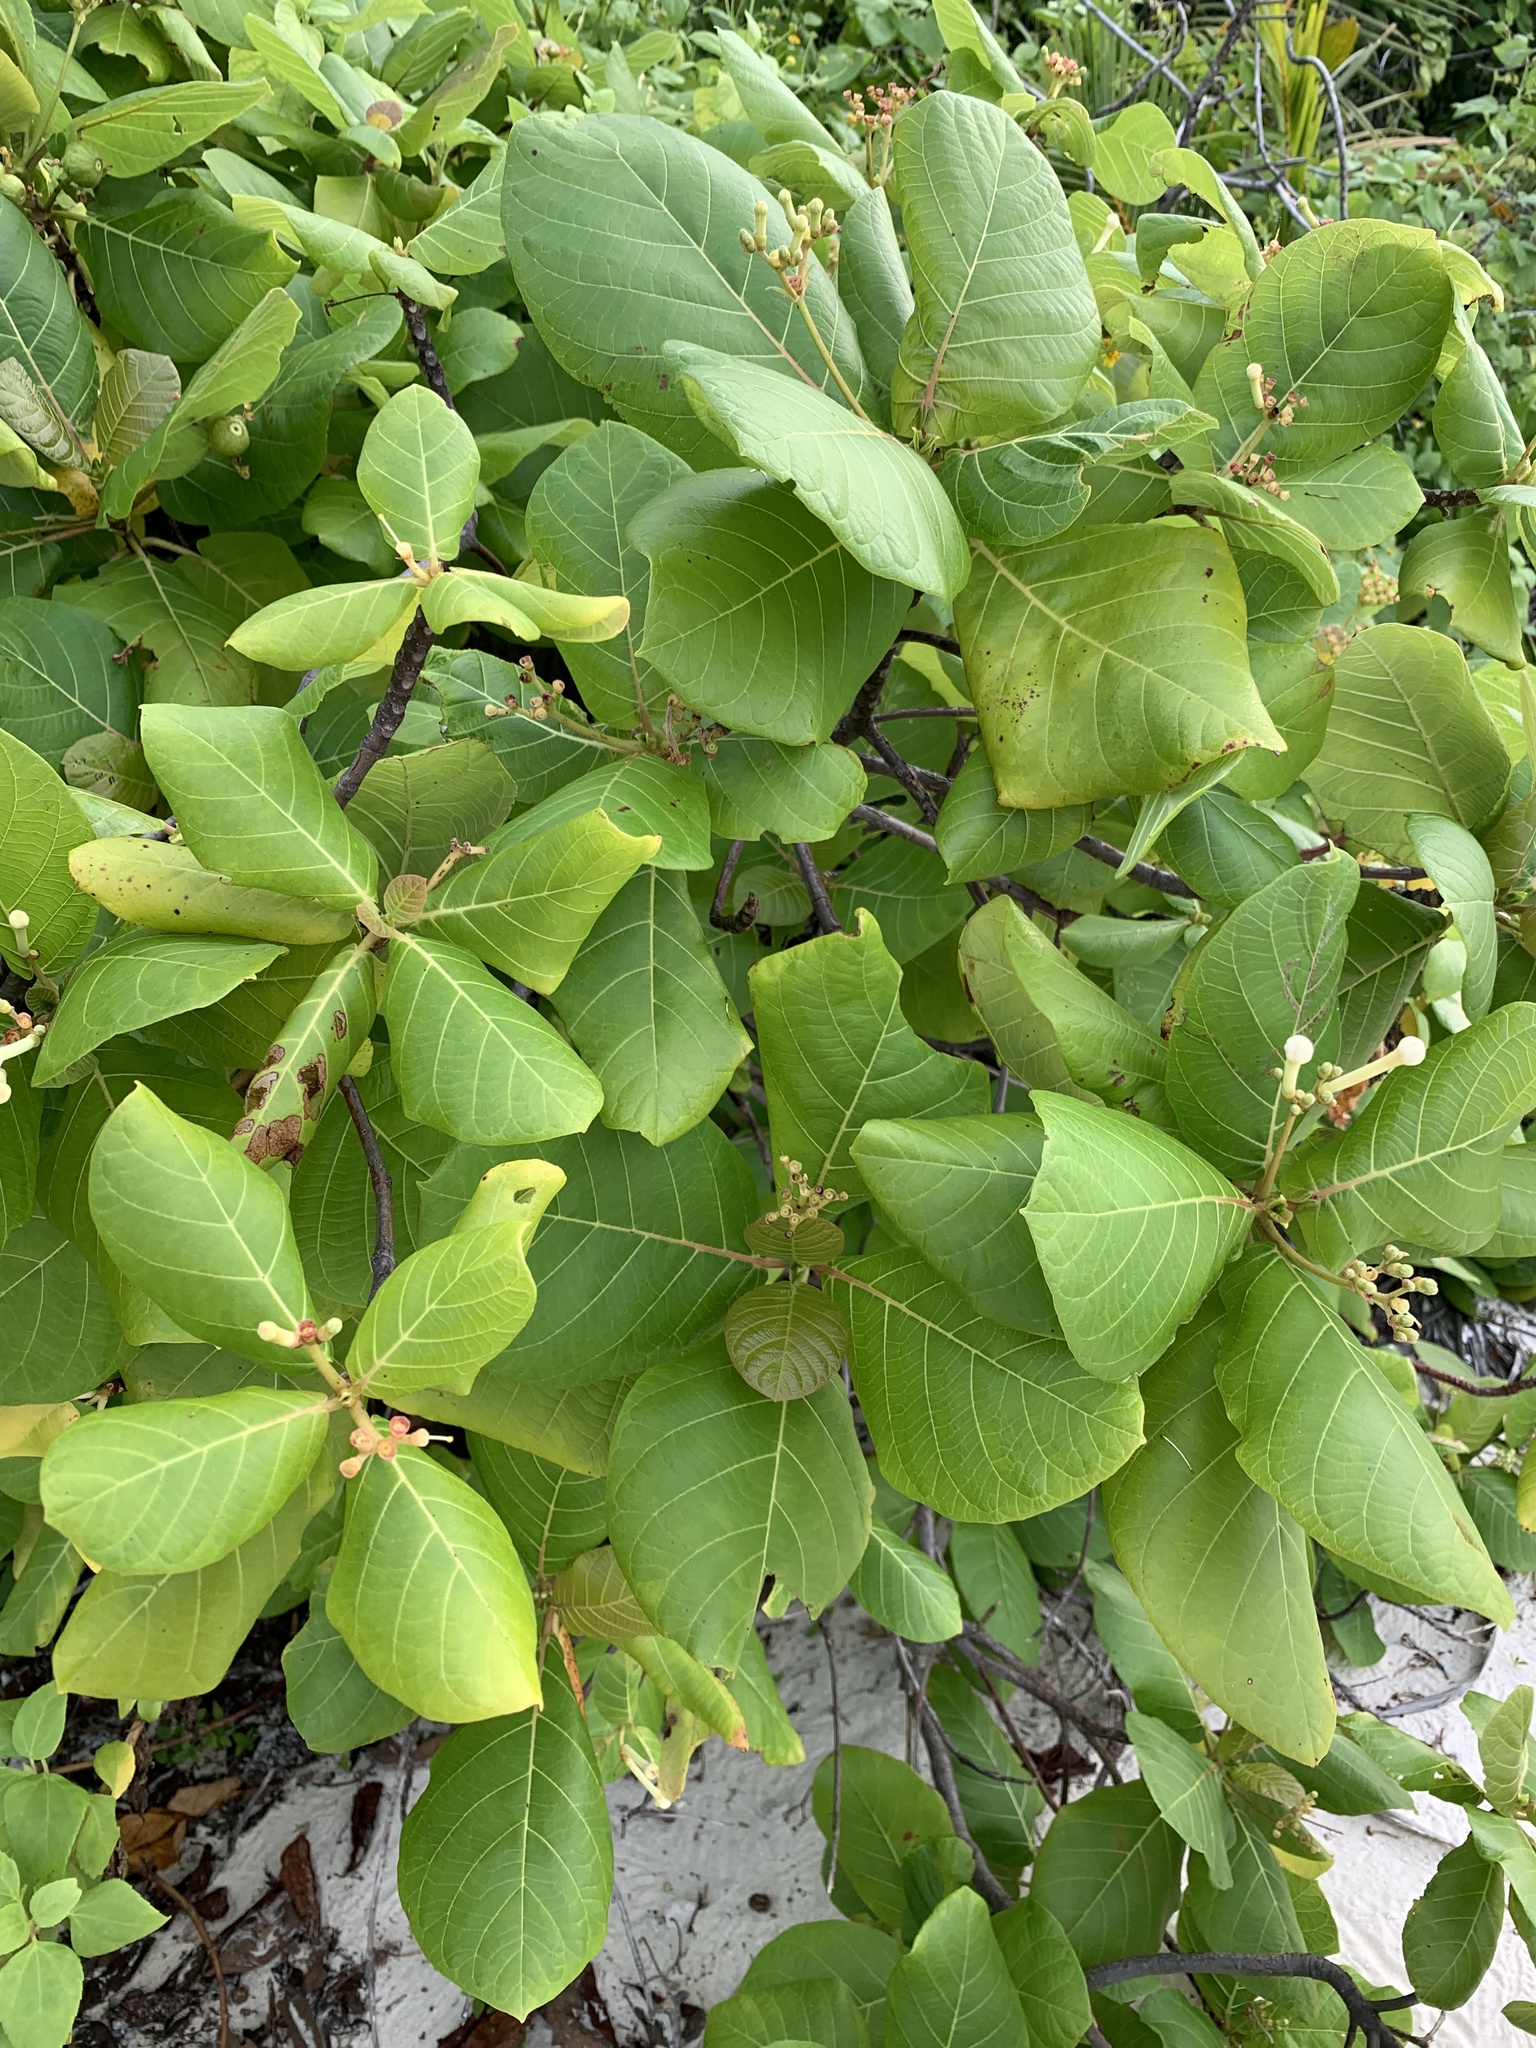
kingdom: Plantae
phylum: Tracheophyta
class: Magnoliopsida
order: Gentianales
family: Rubiaceae
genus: Guettarda
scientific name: Guettarda speciosa
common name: Sea randa
